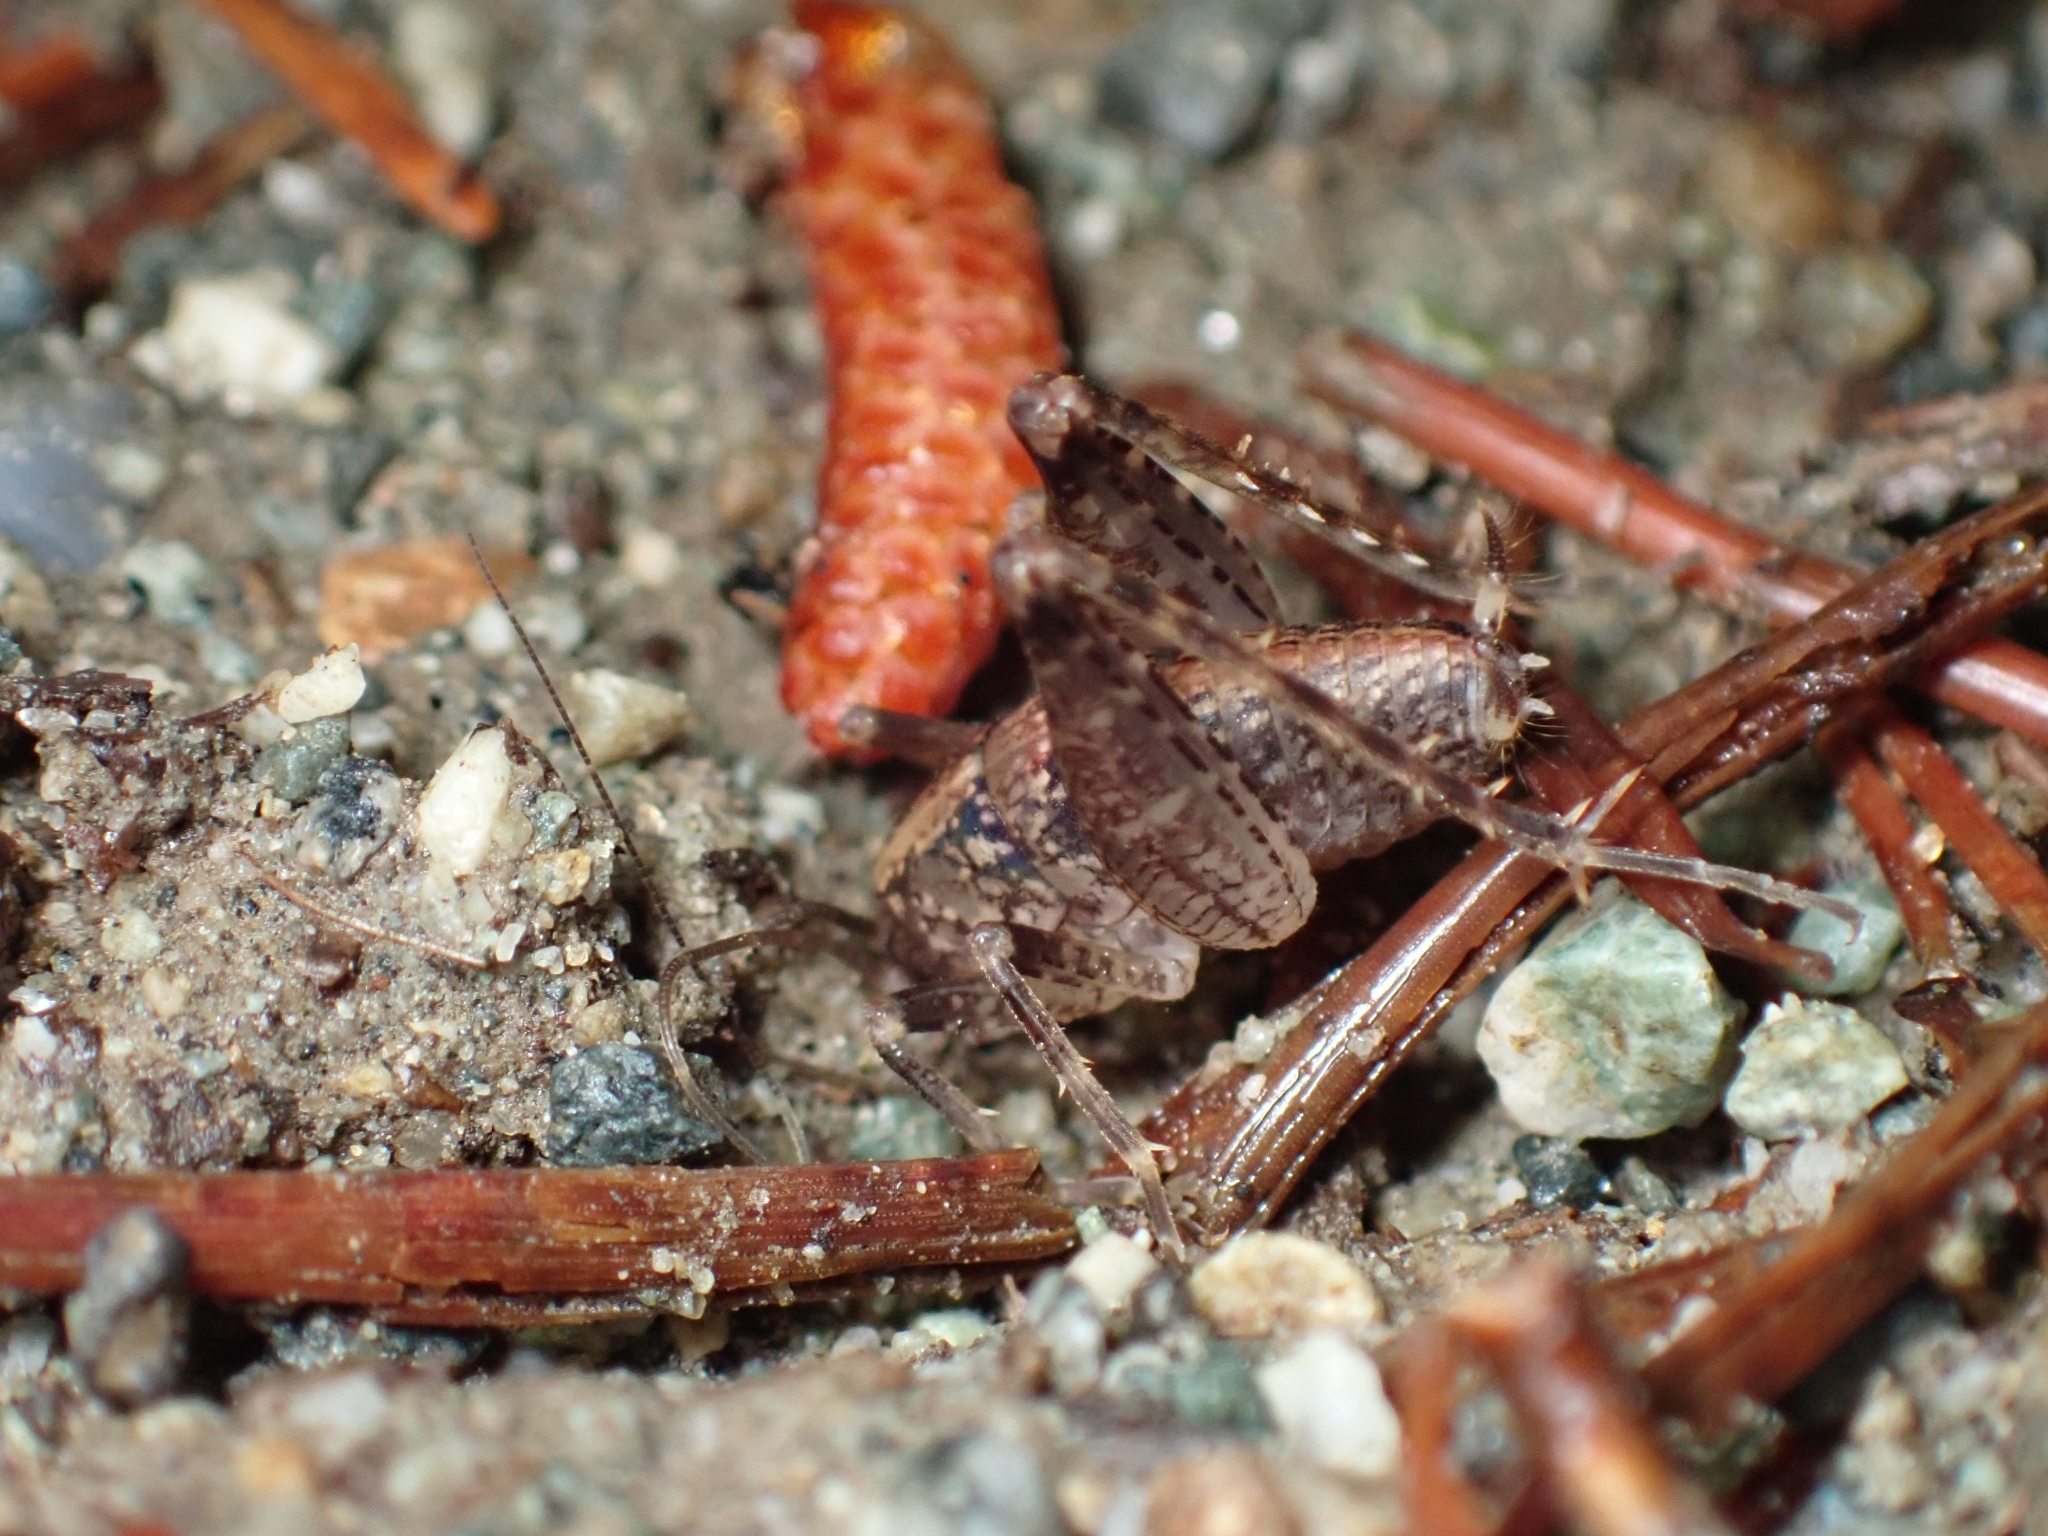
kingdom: Animalia
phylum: Arthropoda
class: Insecta
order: Orthoptera
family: Rhaphidophoridae
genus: Pristoceuthophilus
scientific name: Pristoceuthophilus celatus
